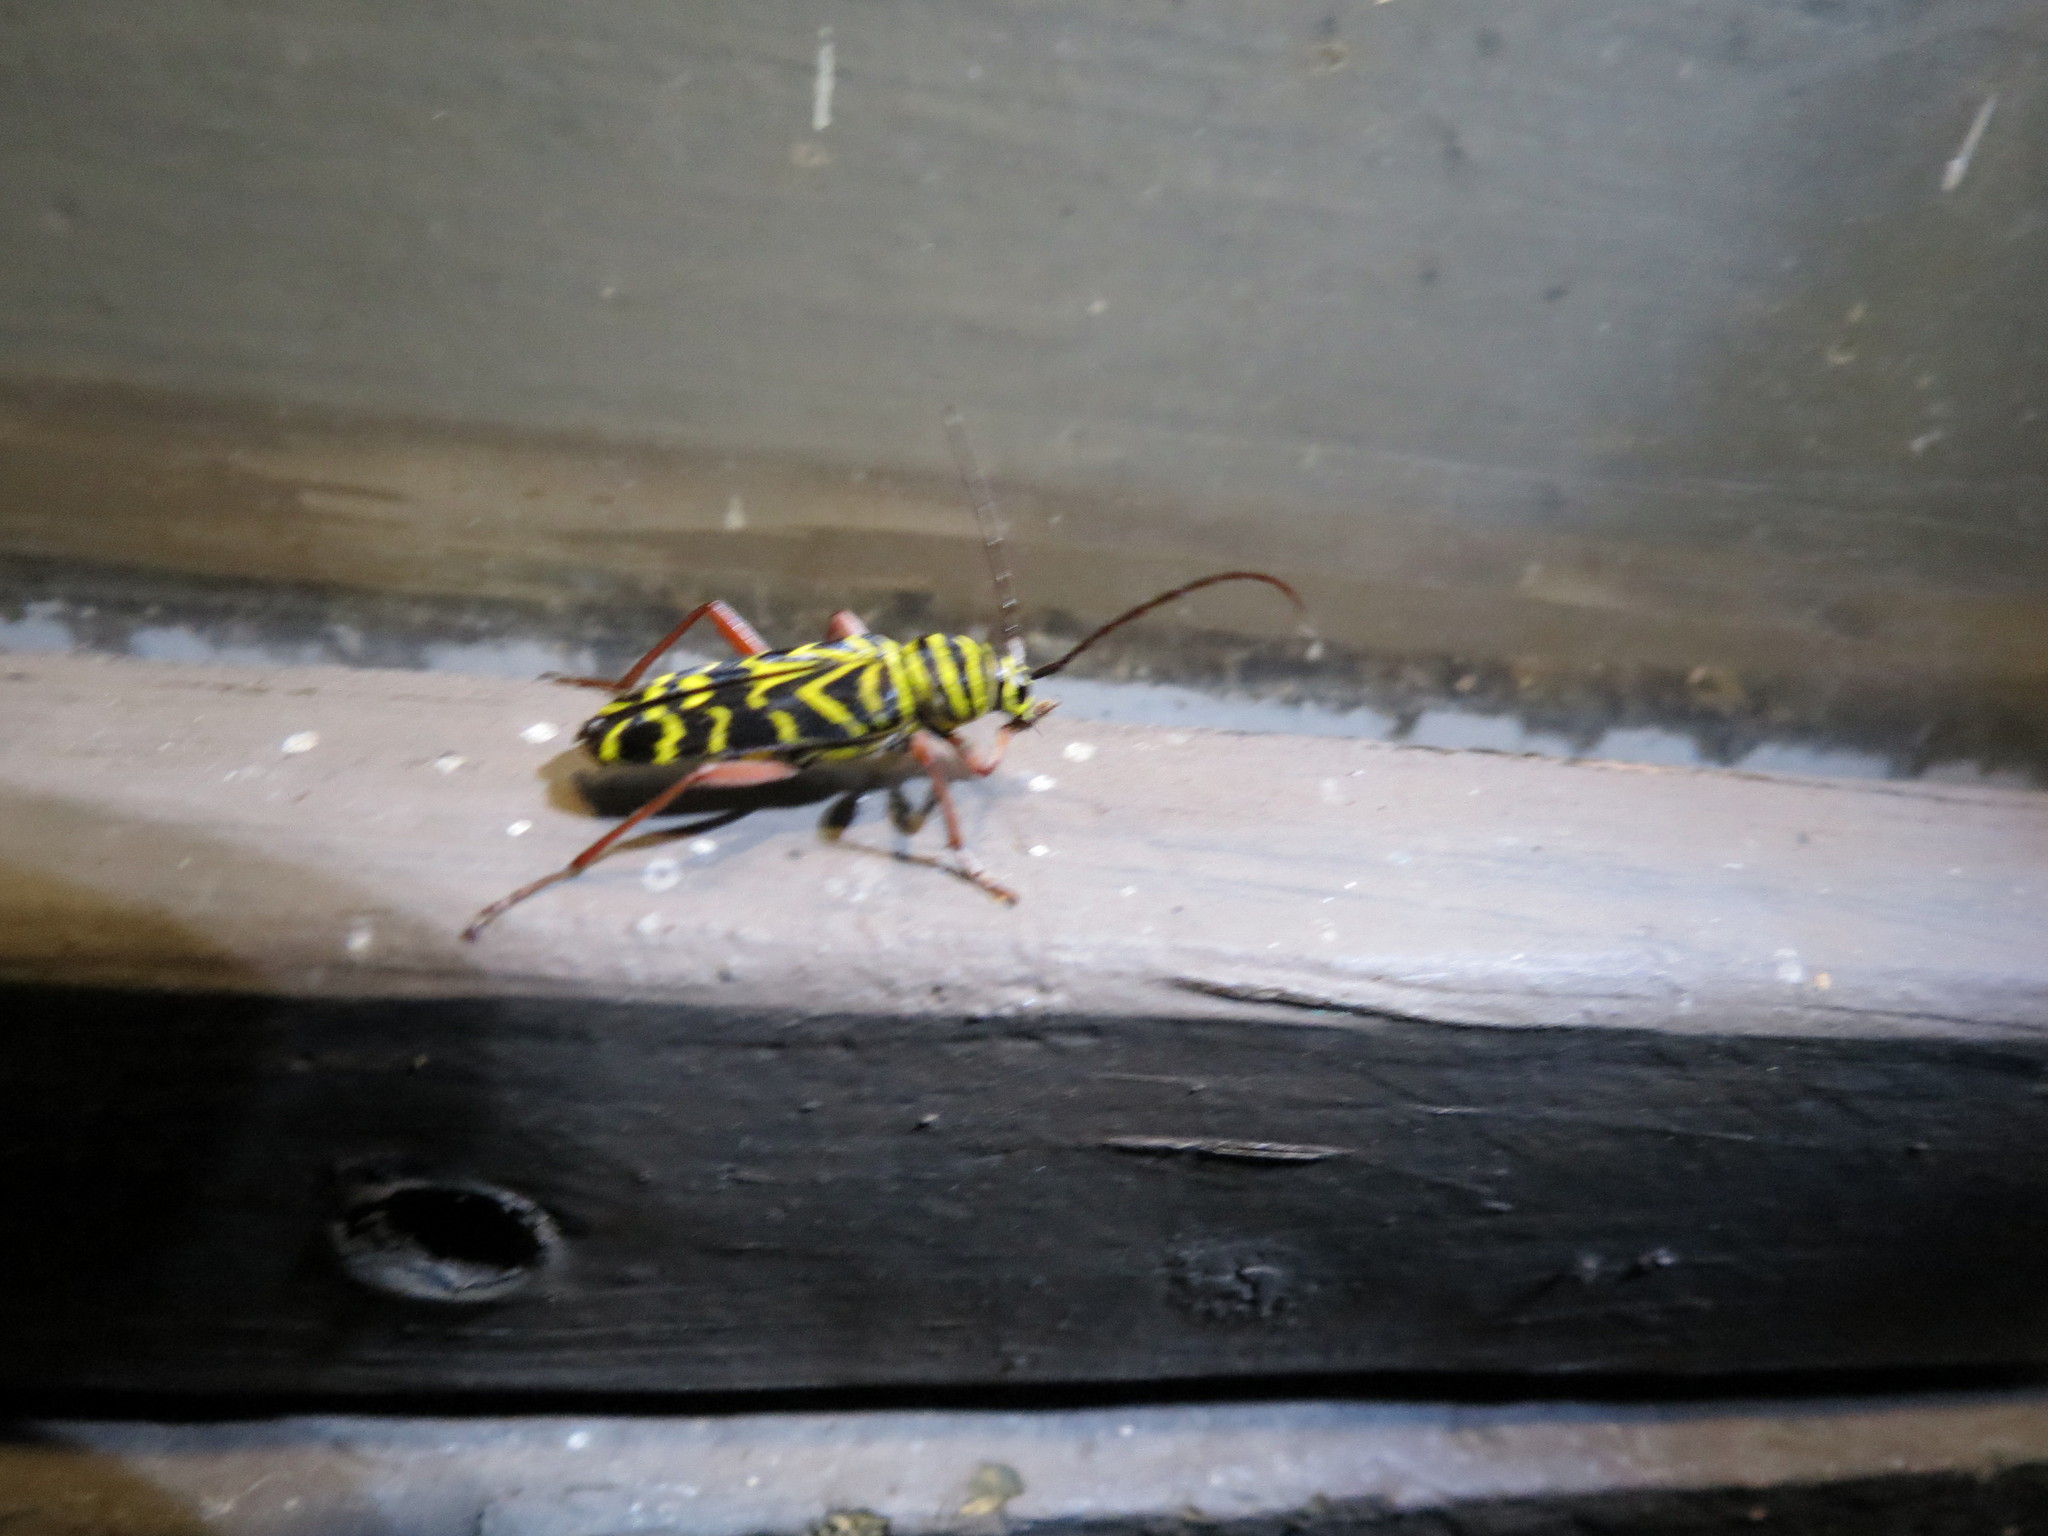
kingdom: Animalia
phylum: Arthropoda
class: Insecta
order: Coleoptera
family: Cerambycidae
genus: Megacyllene
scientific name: Megacyllene robiniae
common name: Locust borer
